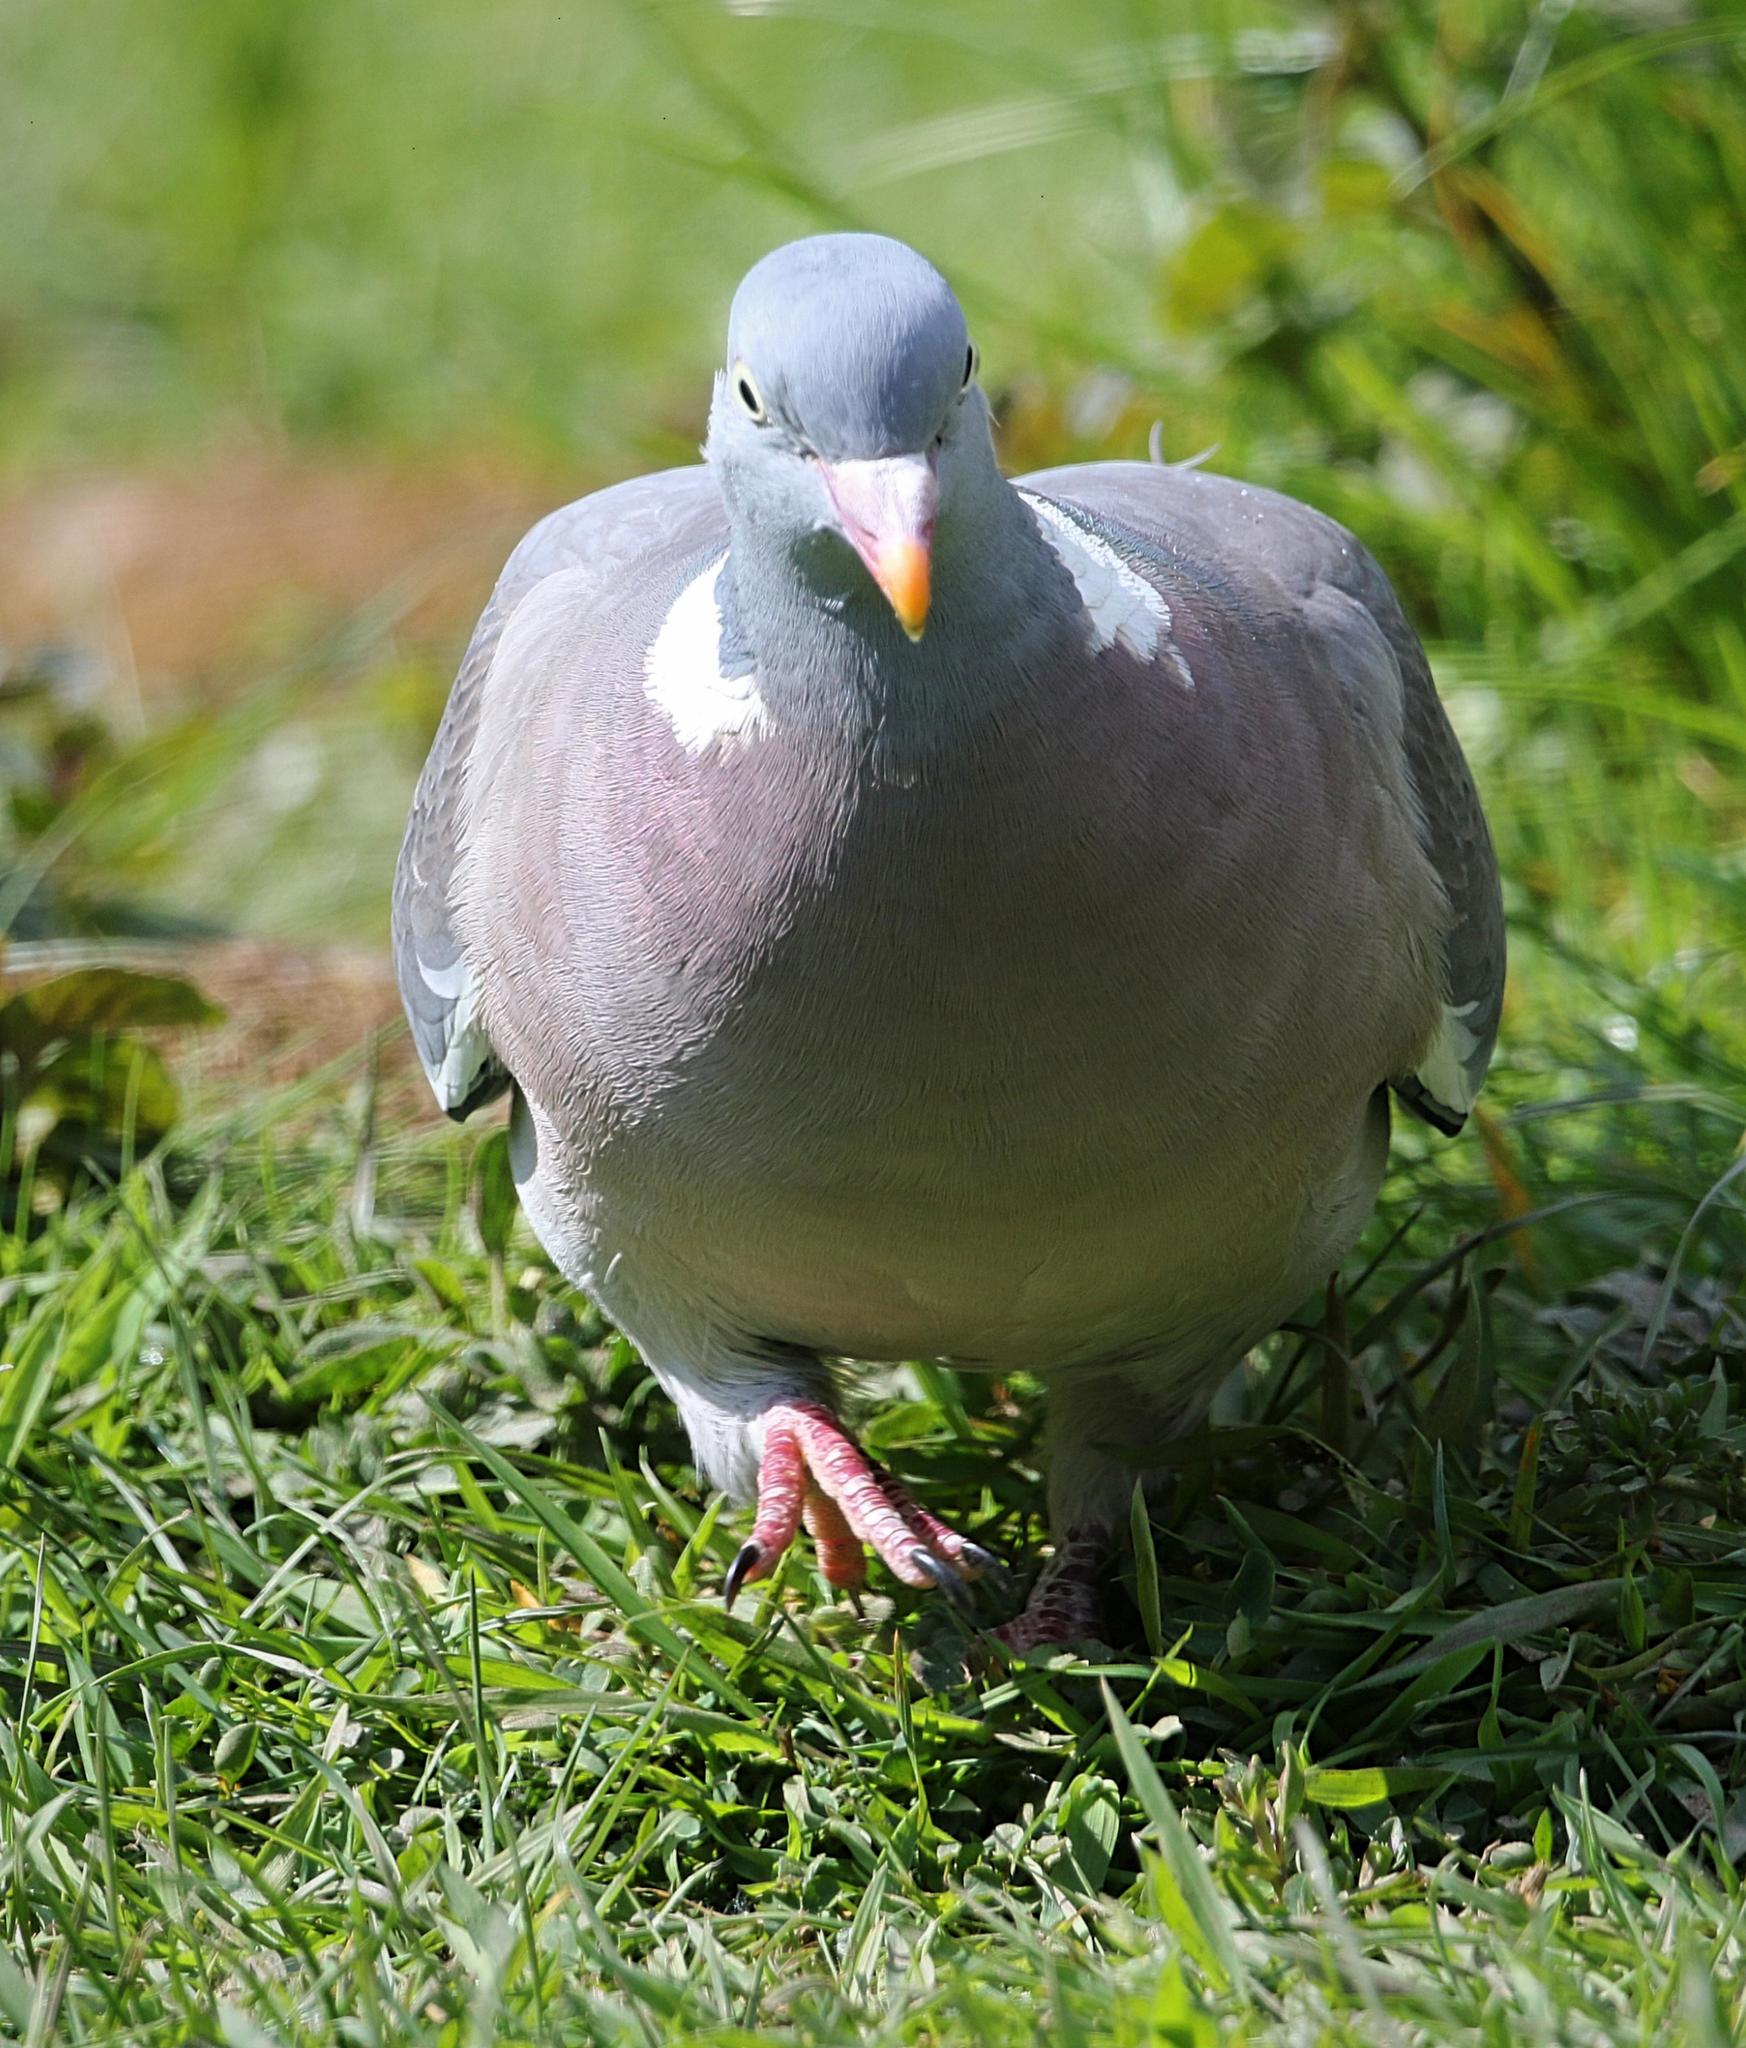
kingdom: Animalia
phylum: Chordata
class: Aves
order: Columbiformes
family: Columbidae
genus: Columba
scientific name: Columba palumbus
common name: Common wood pigeon
